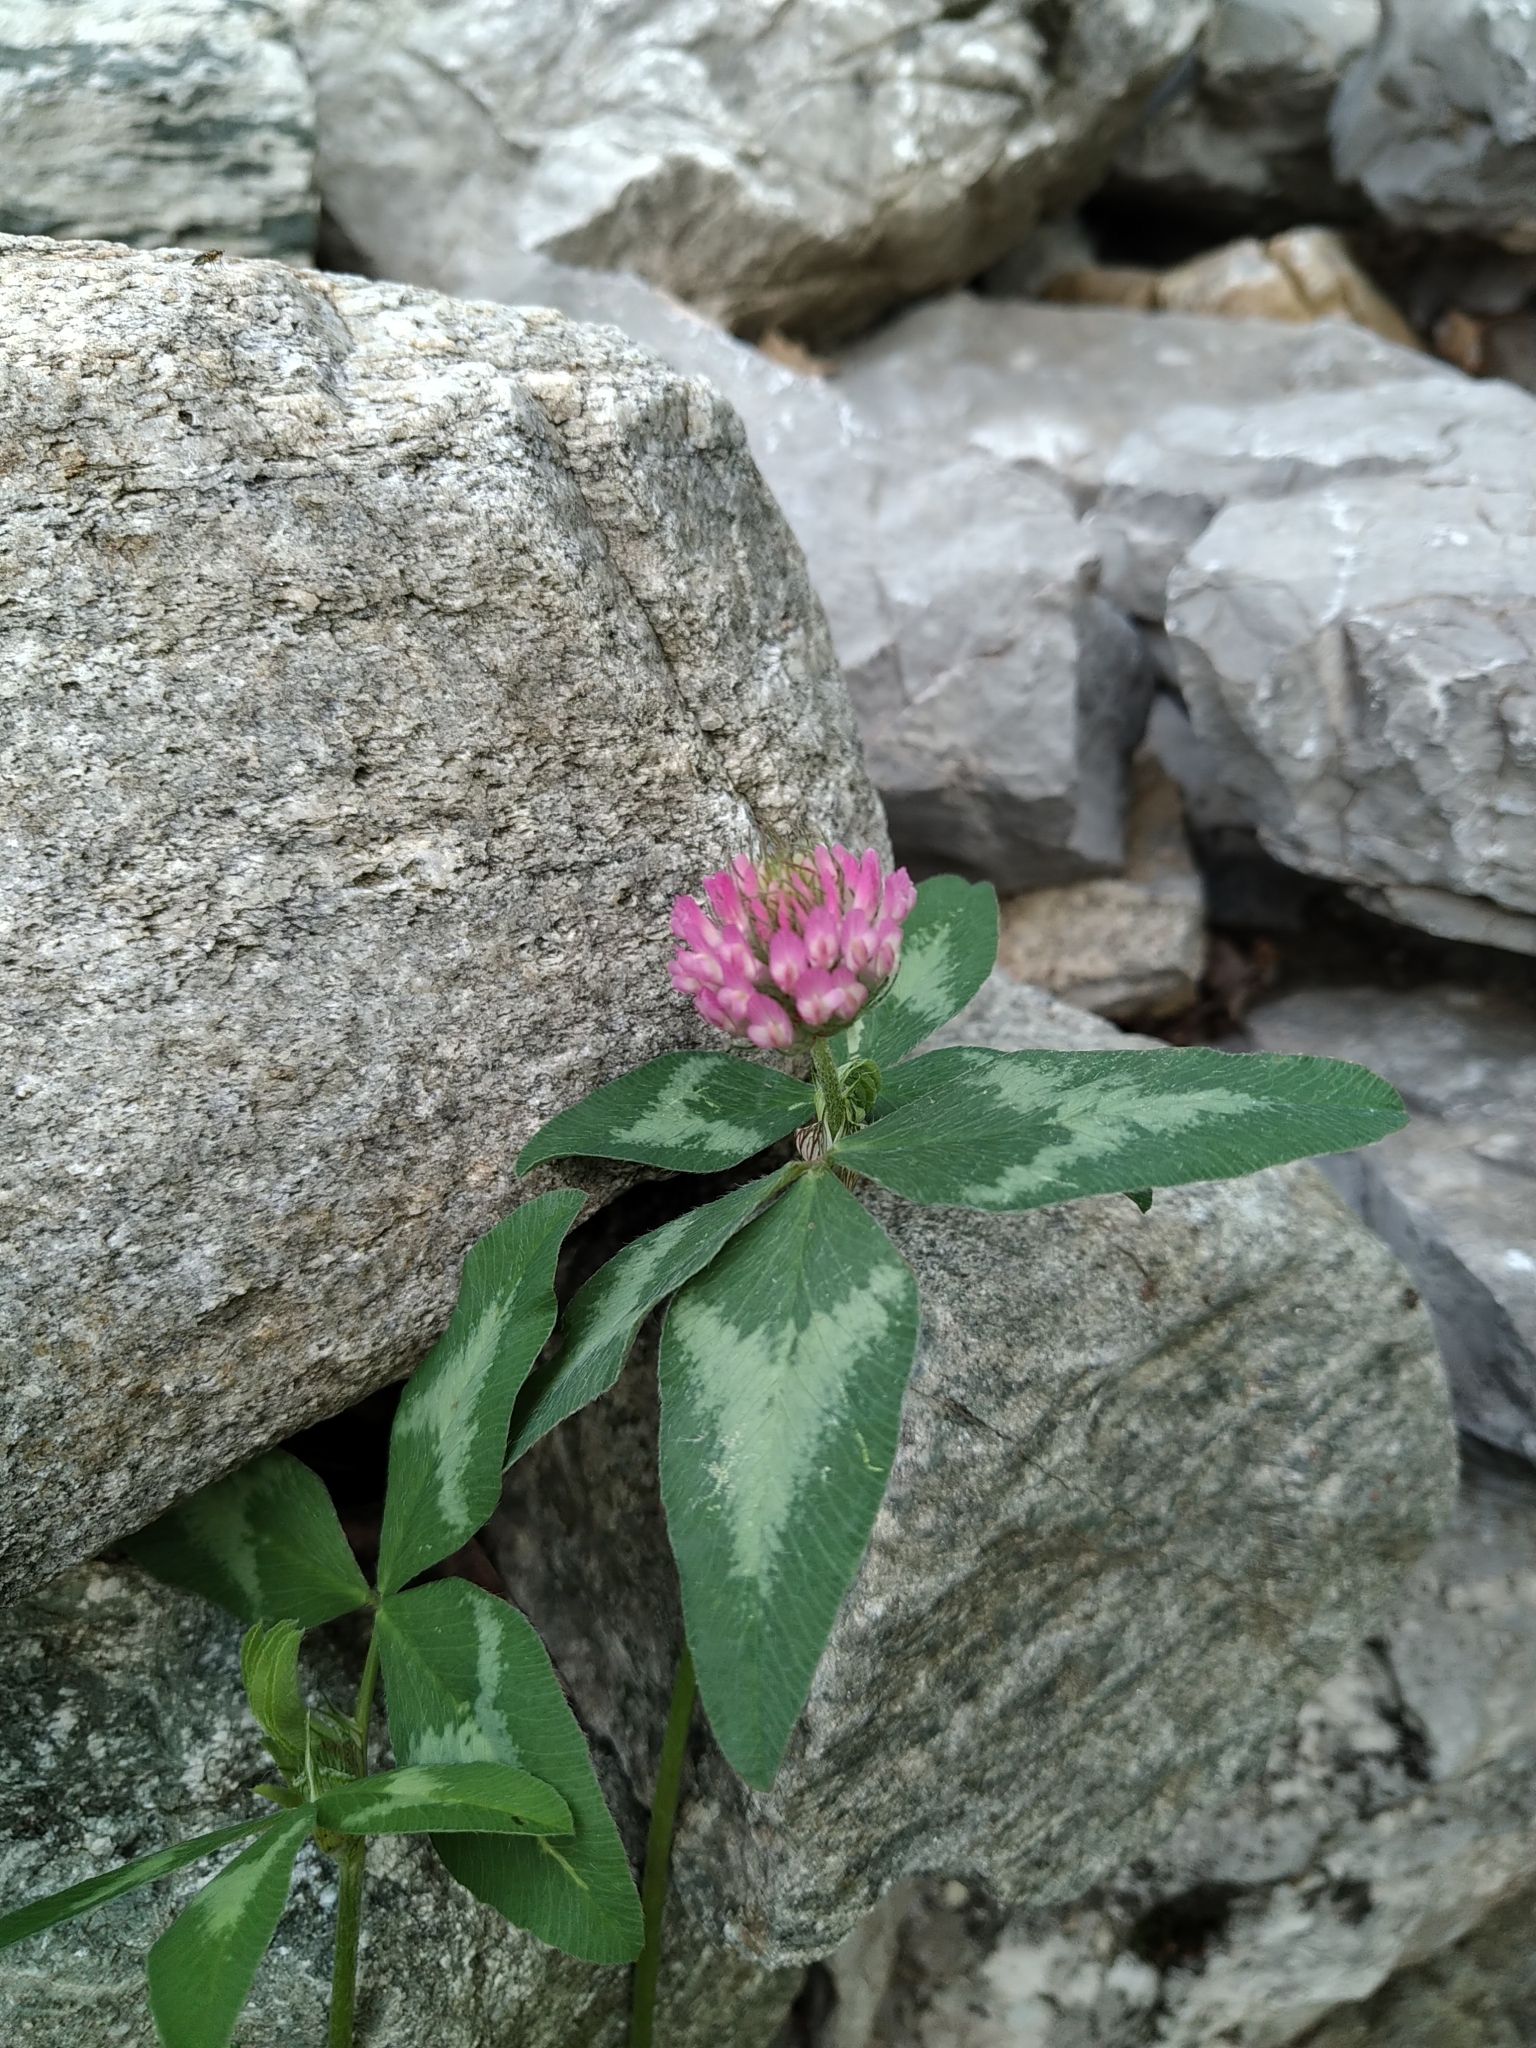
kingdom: Plantae
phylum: Tracheophyta
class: Magnoliopsida
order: Fabales
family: Fabaceae
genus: Trifolium
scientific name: Trifolium pratense
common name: Red clover
